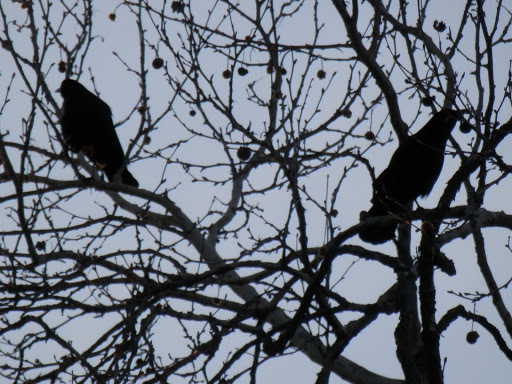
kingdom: Animalia
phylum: Chordata
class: Aves
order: Passeriformes
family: Corvidae
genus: Corvus
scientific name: Corvus brachyrhynchos
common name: American crow
